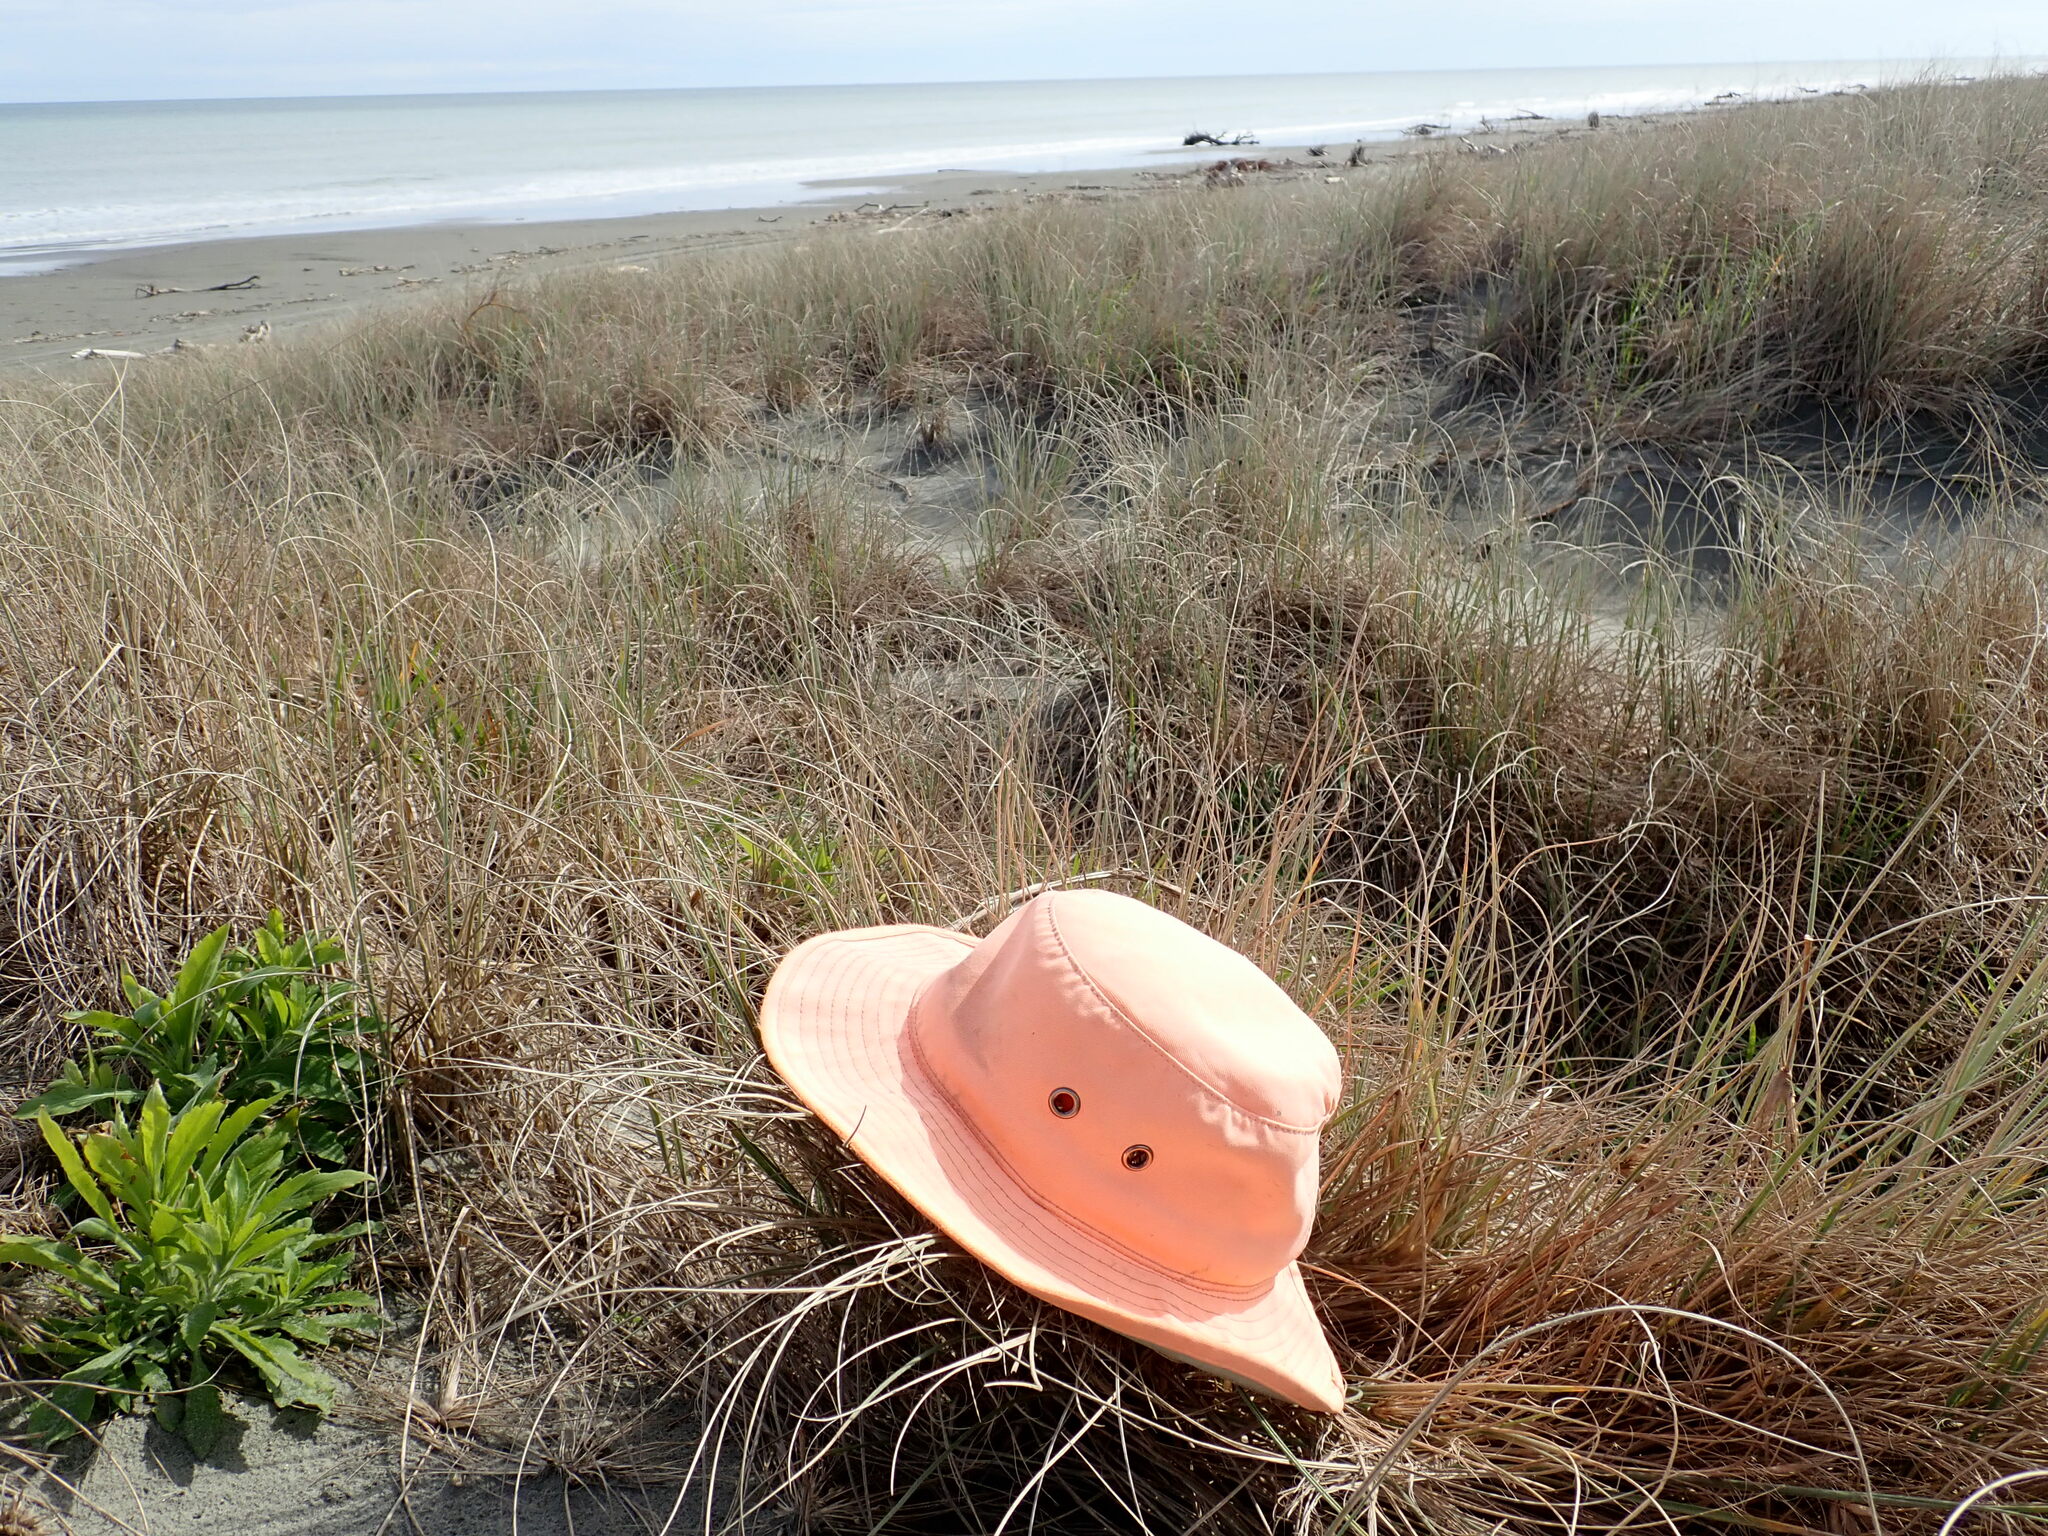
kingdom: Animalia
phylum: Arthropoda
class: Arachnida
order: Araneae
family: Thomisidae
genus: Sidymella
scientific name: Sidymella trapezia
